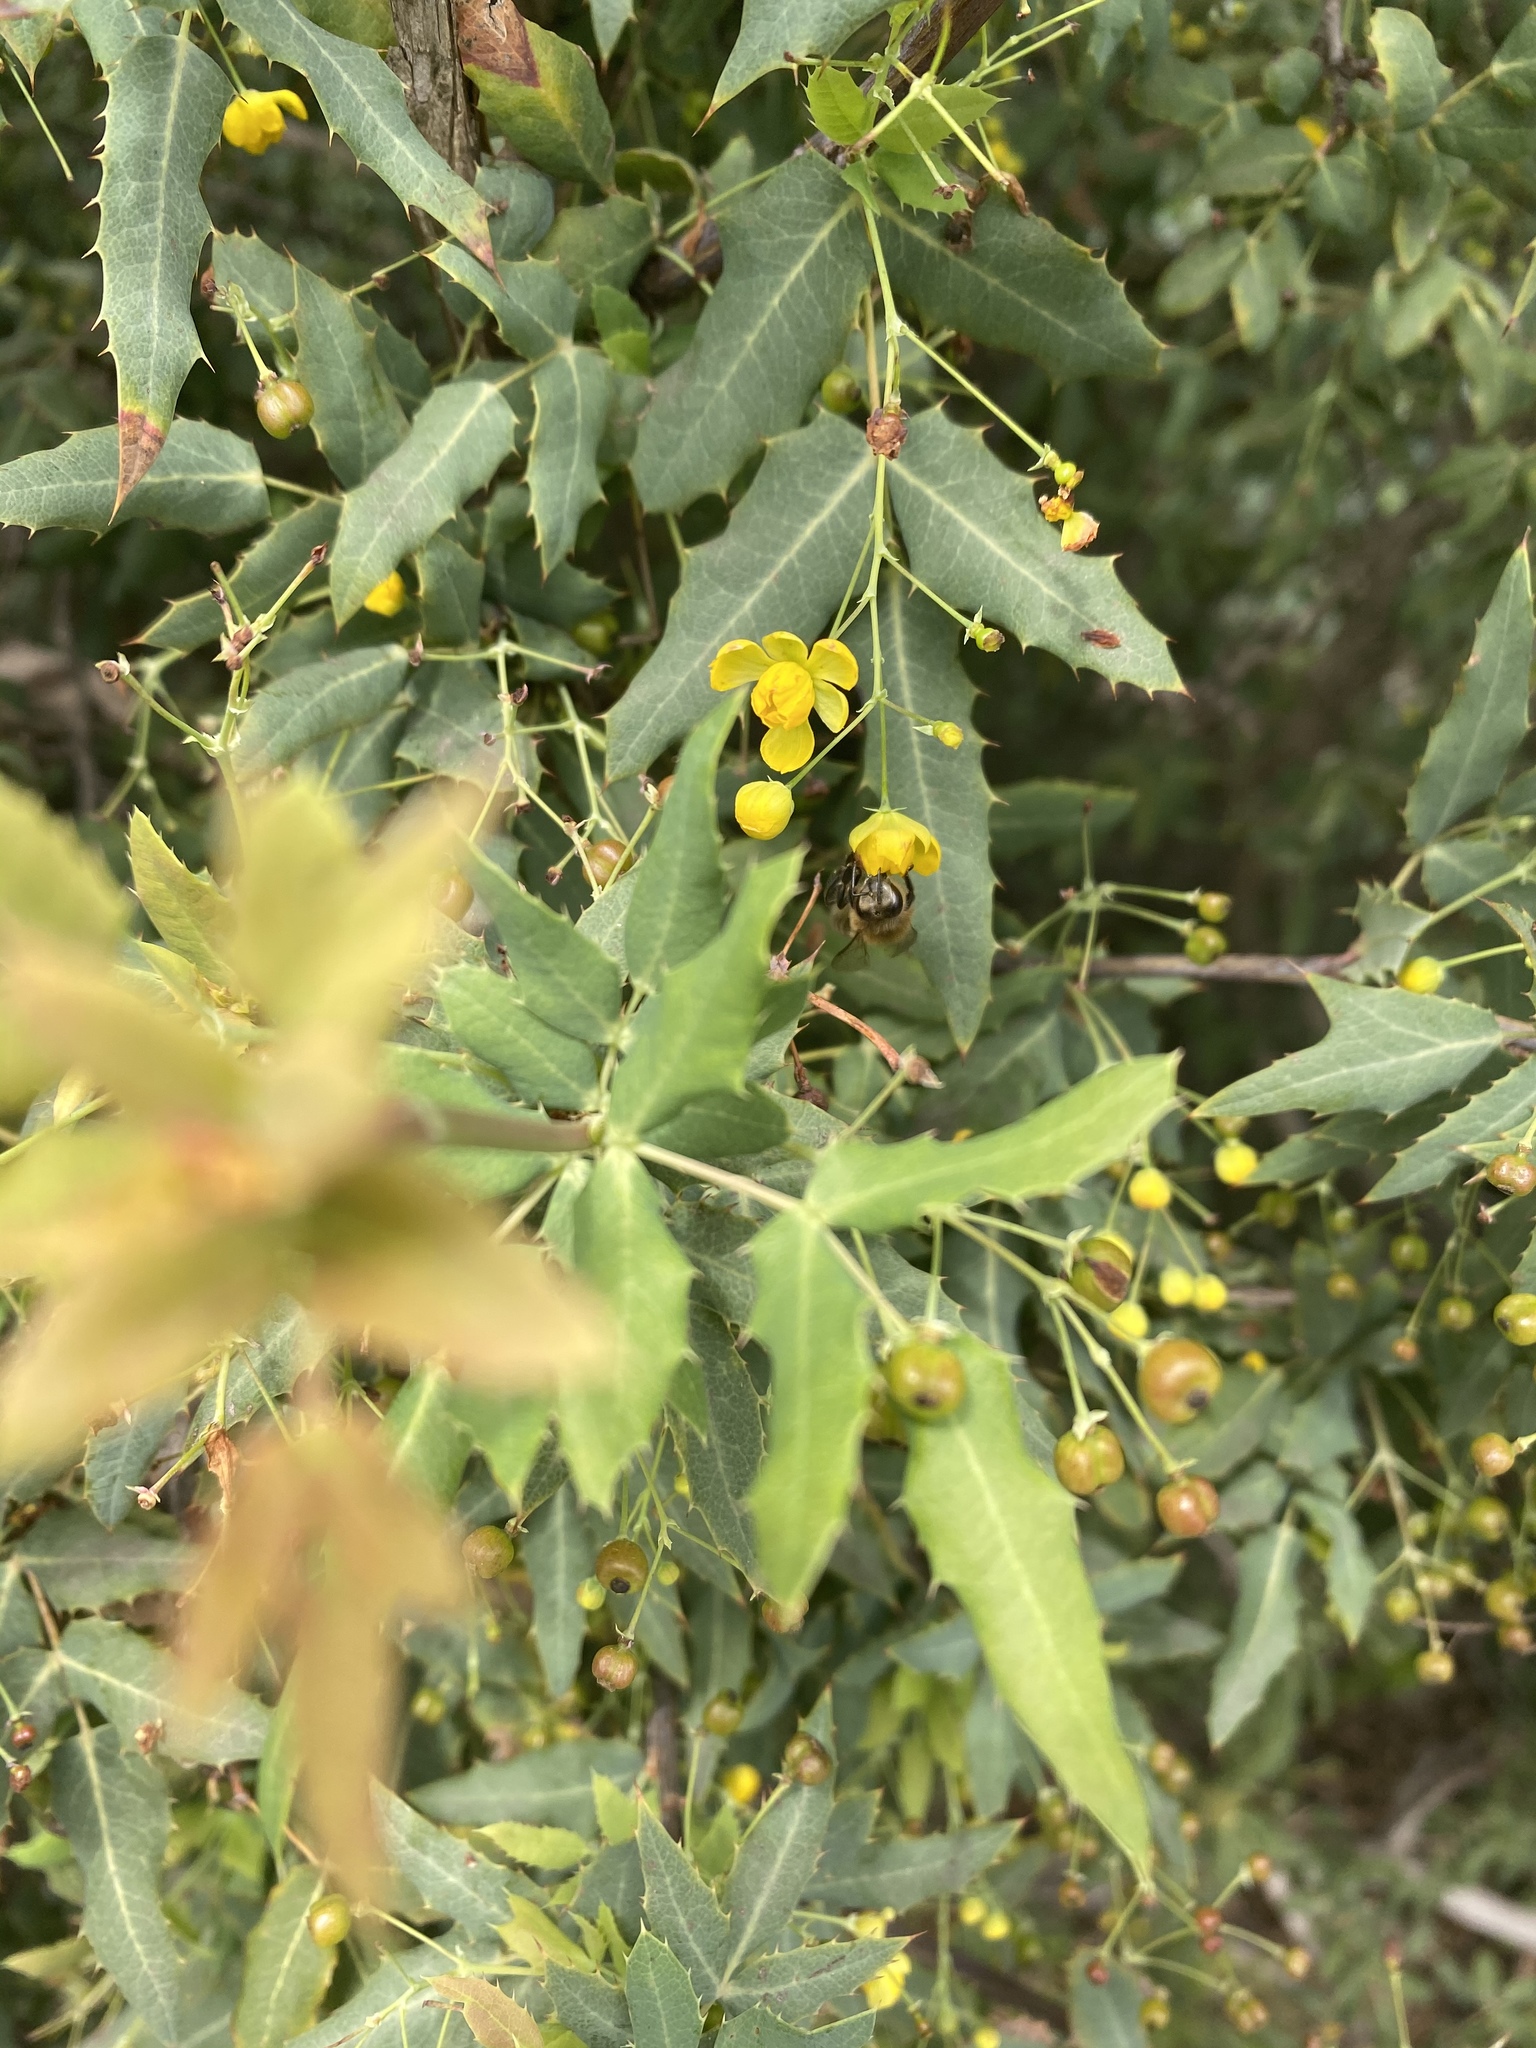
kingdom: Plantae
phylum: Tracheophyta
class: Magnoliopsida
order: Ranunculales
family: Berberidaceae
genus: Alloberberis
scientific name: Alloberberis nevinii
